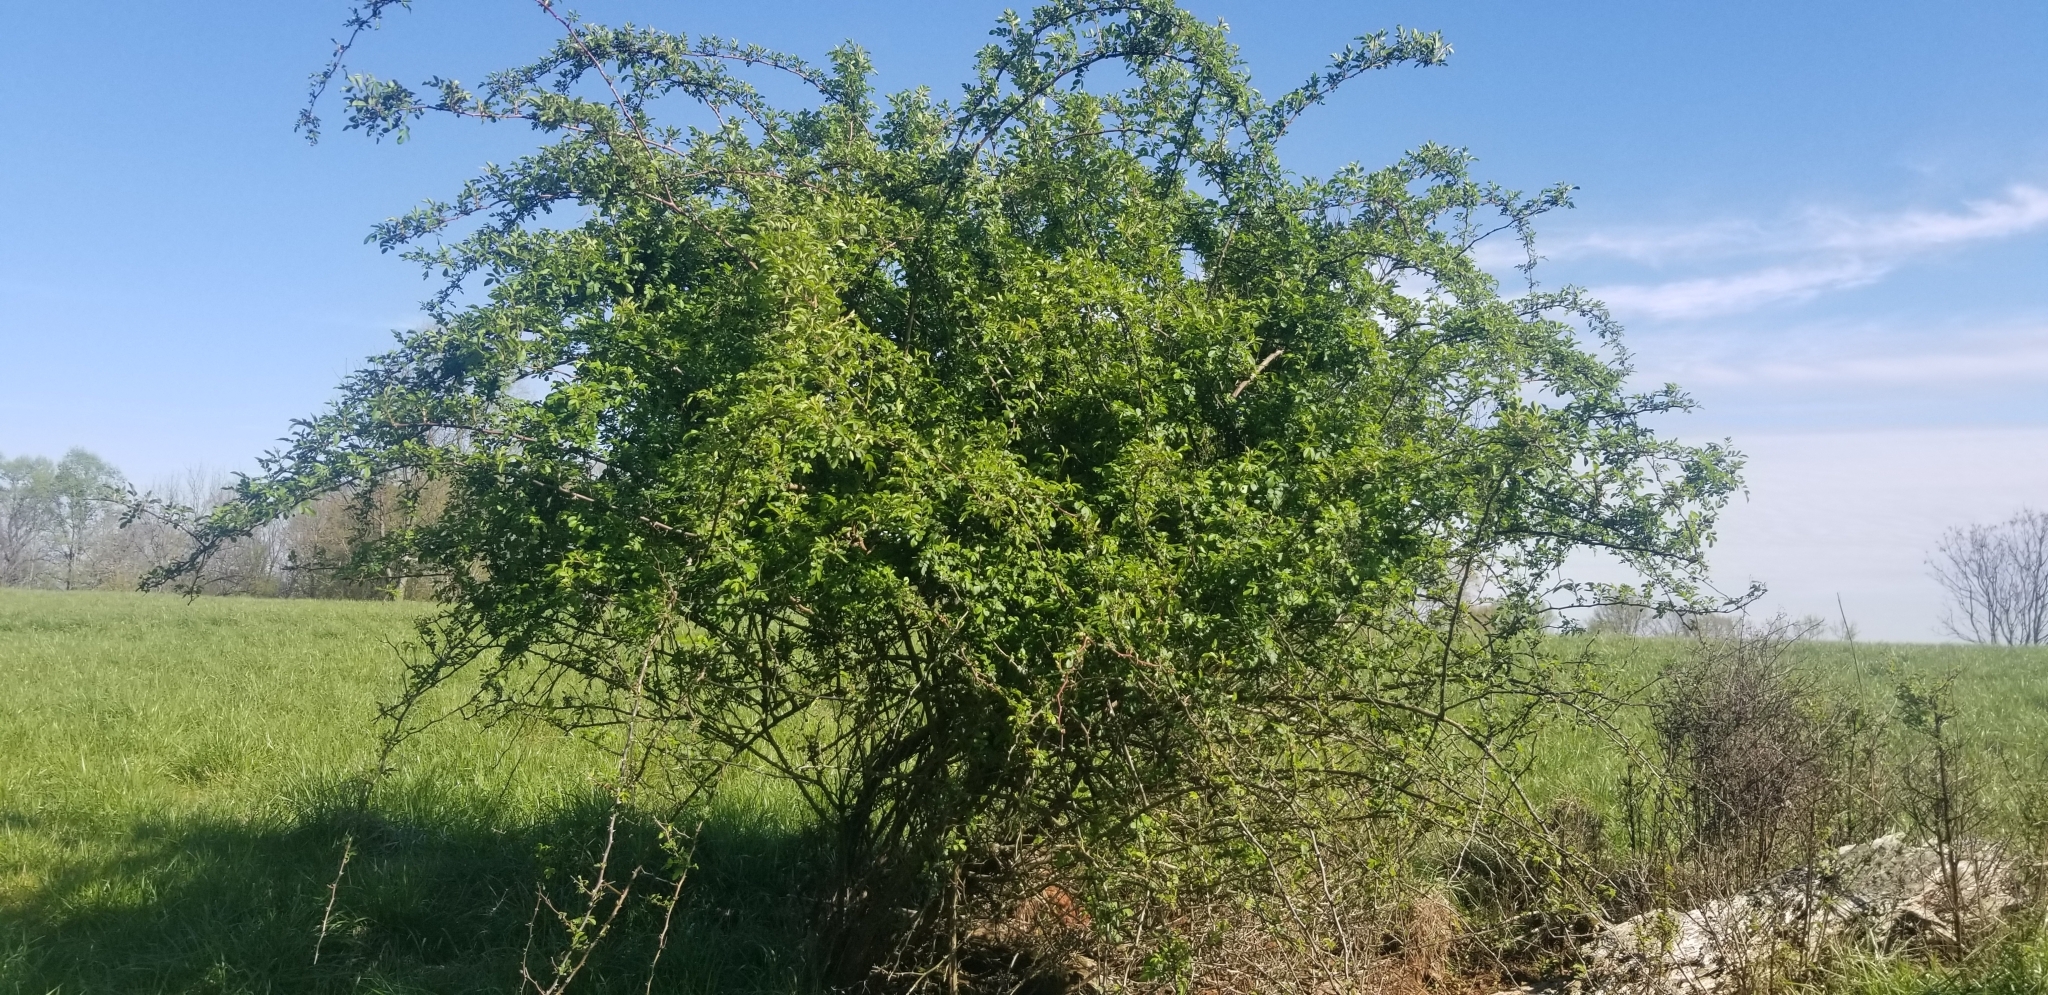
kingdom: Plantae
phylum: Tracheophyta
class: Magnoliopsida
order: Rosales
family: Rosaceae
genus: Rosa
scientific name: Rosa multiflora
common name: Multiflora rose
